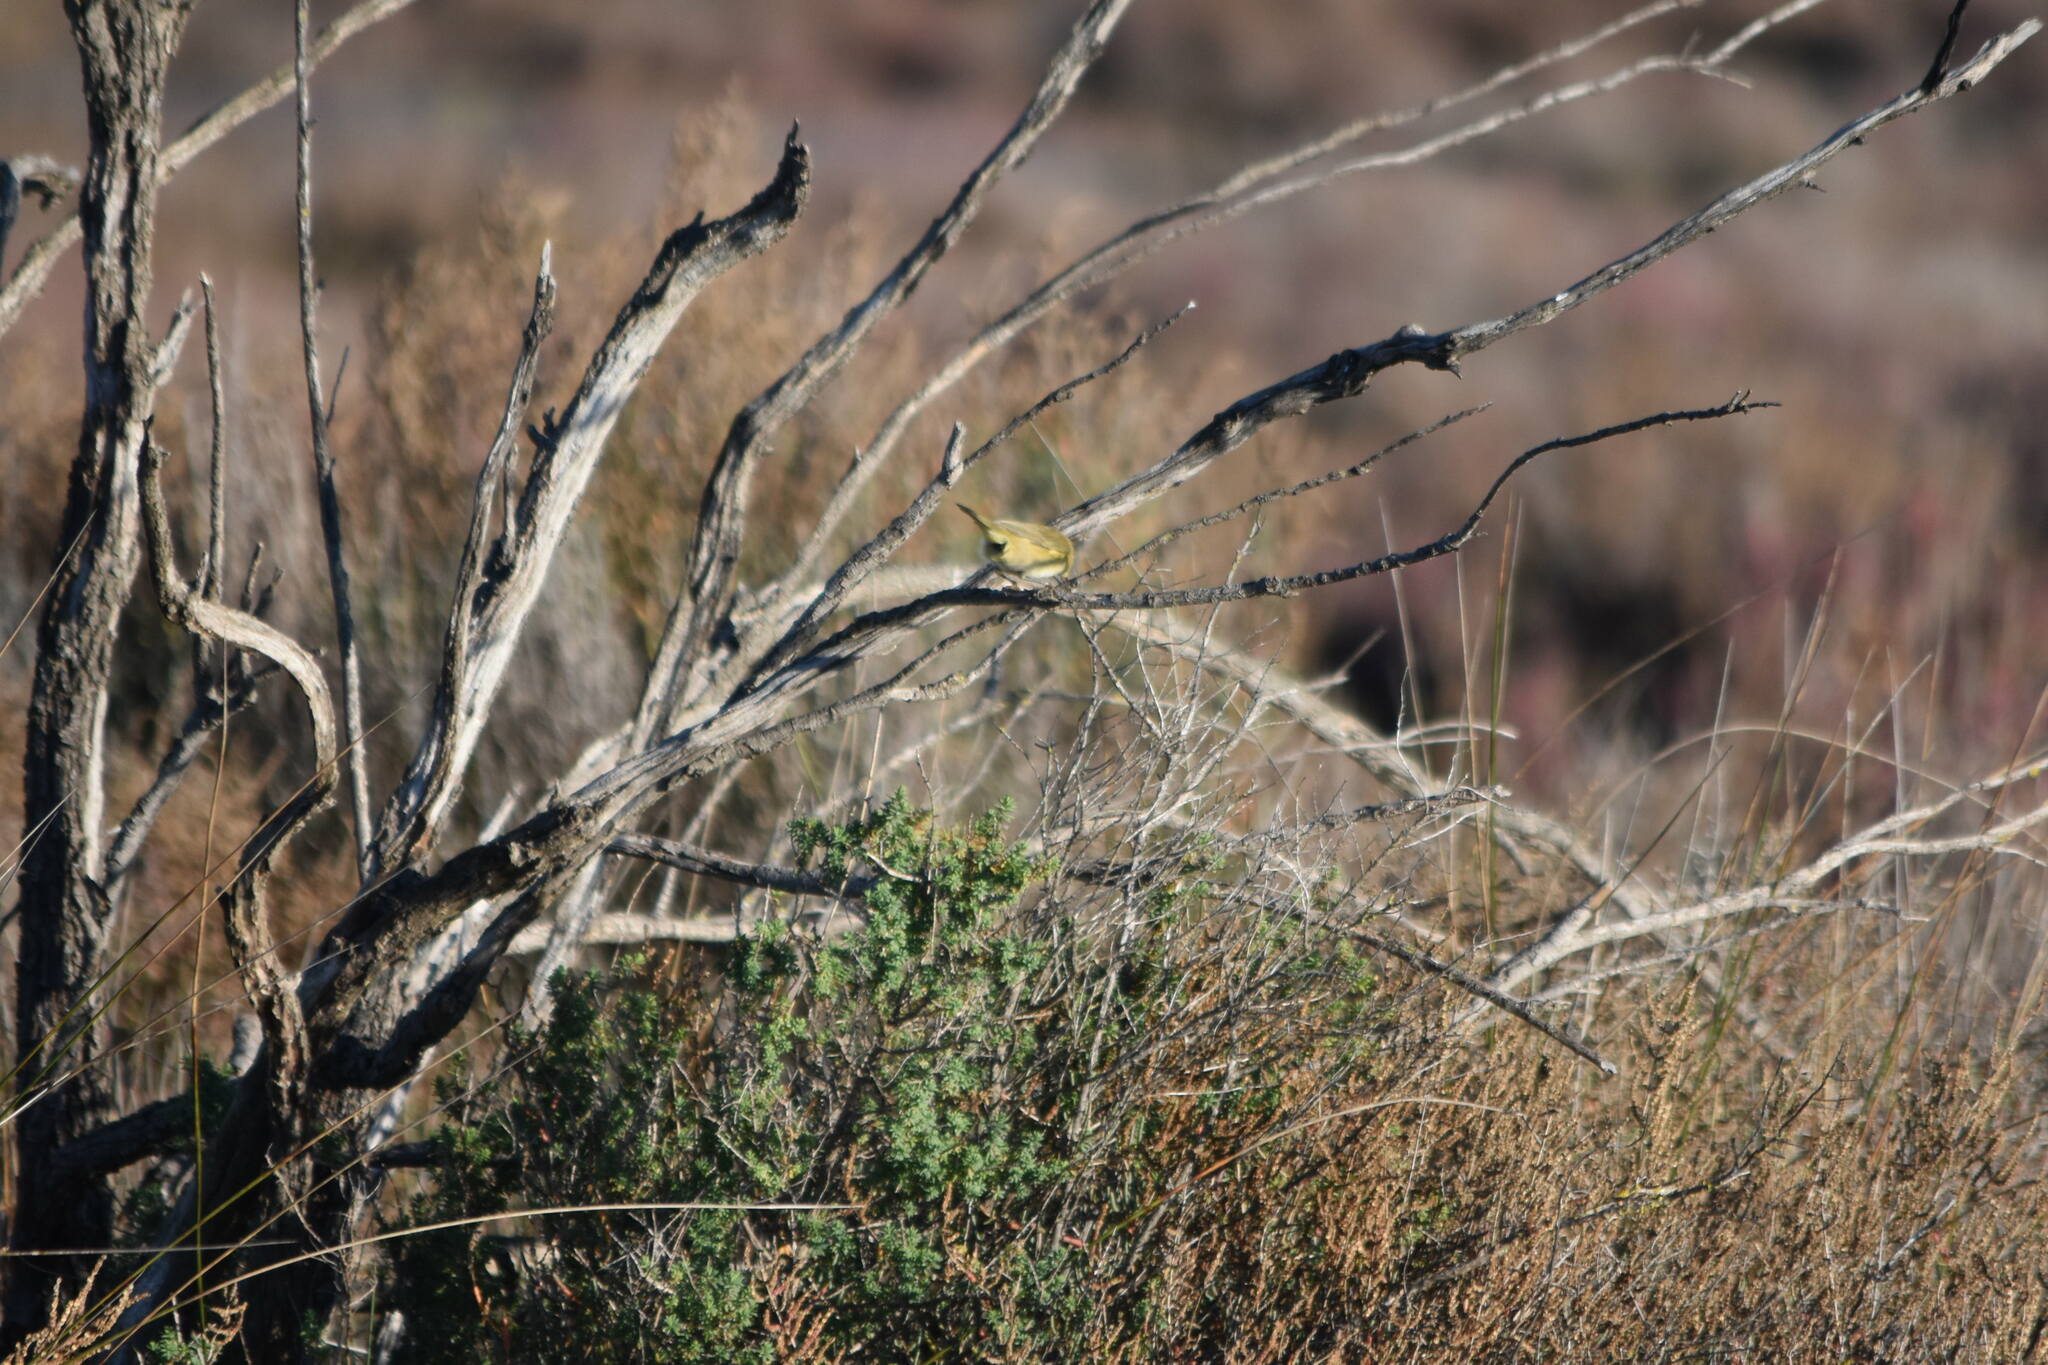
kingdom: Animalia
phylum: Chordata
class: Aves
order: Passeriformes
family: Phylloscopidae
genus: Phylloscopus
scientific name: Phylloscopus collybita
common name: Common chiffchaff
